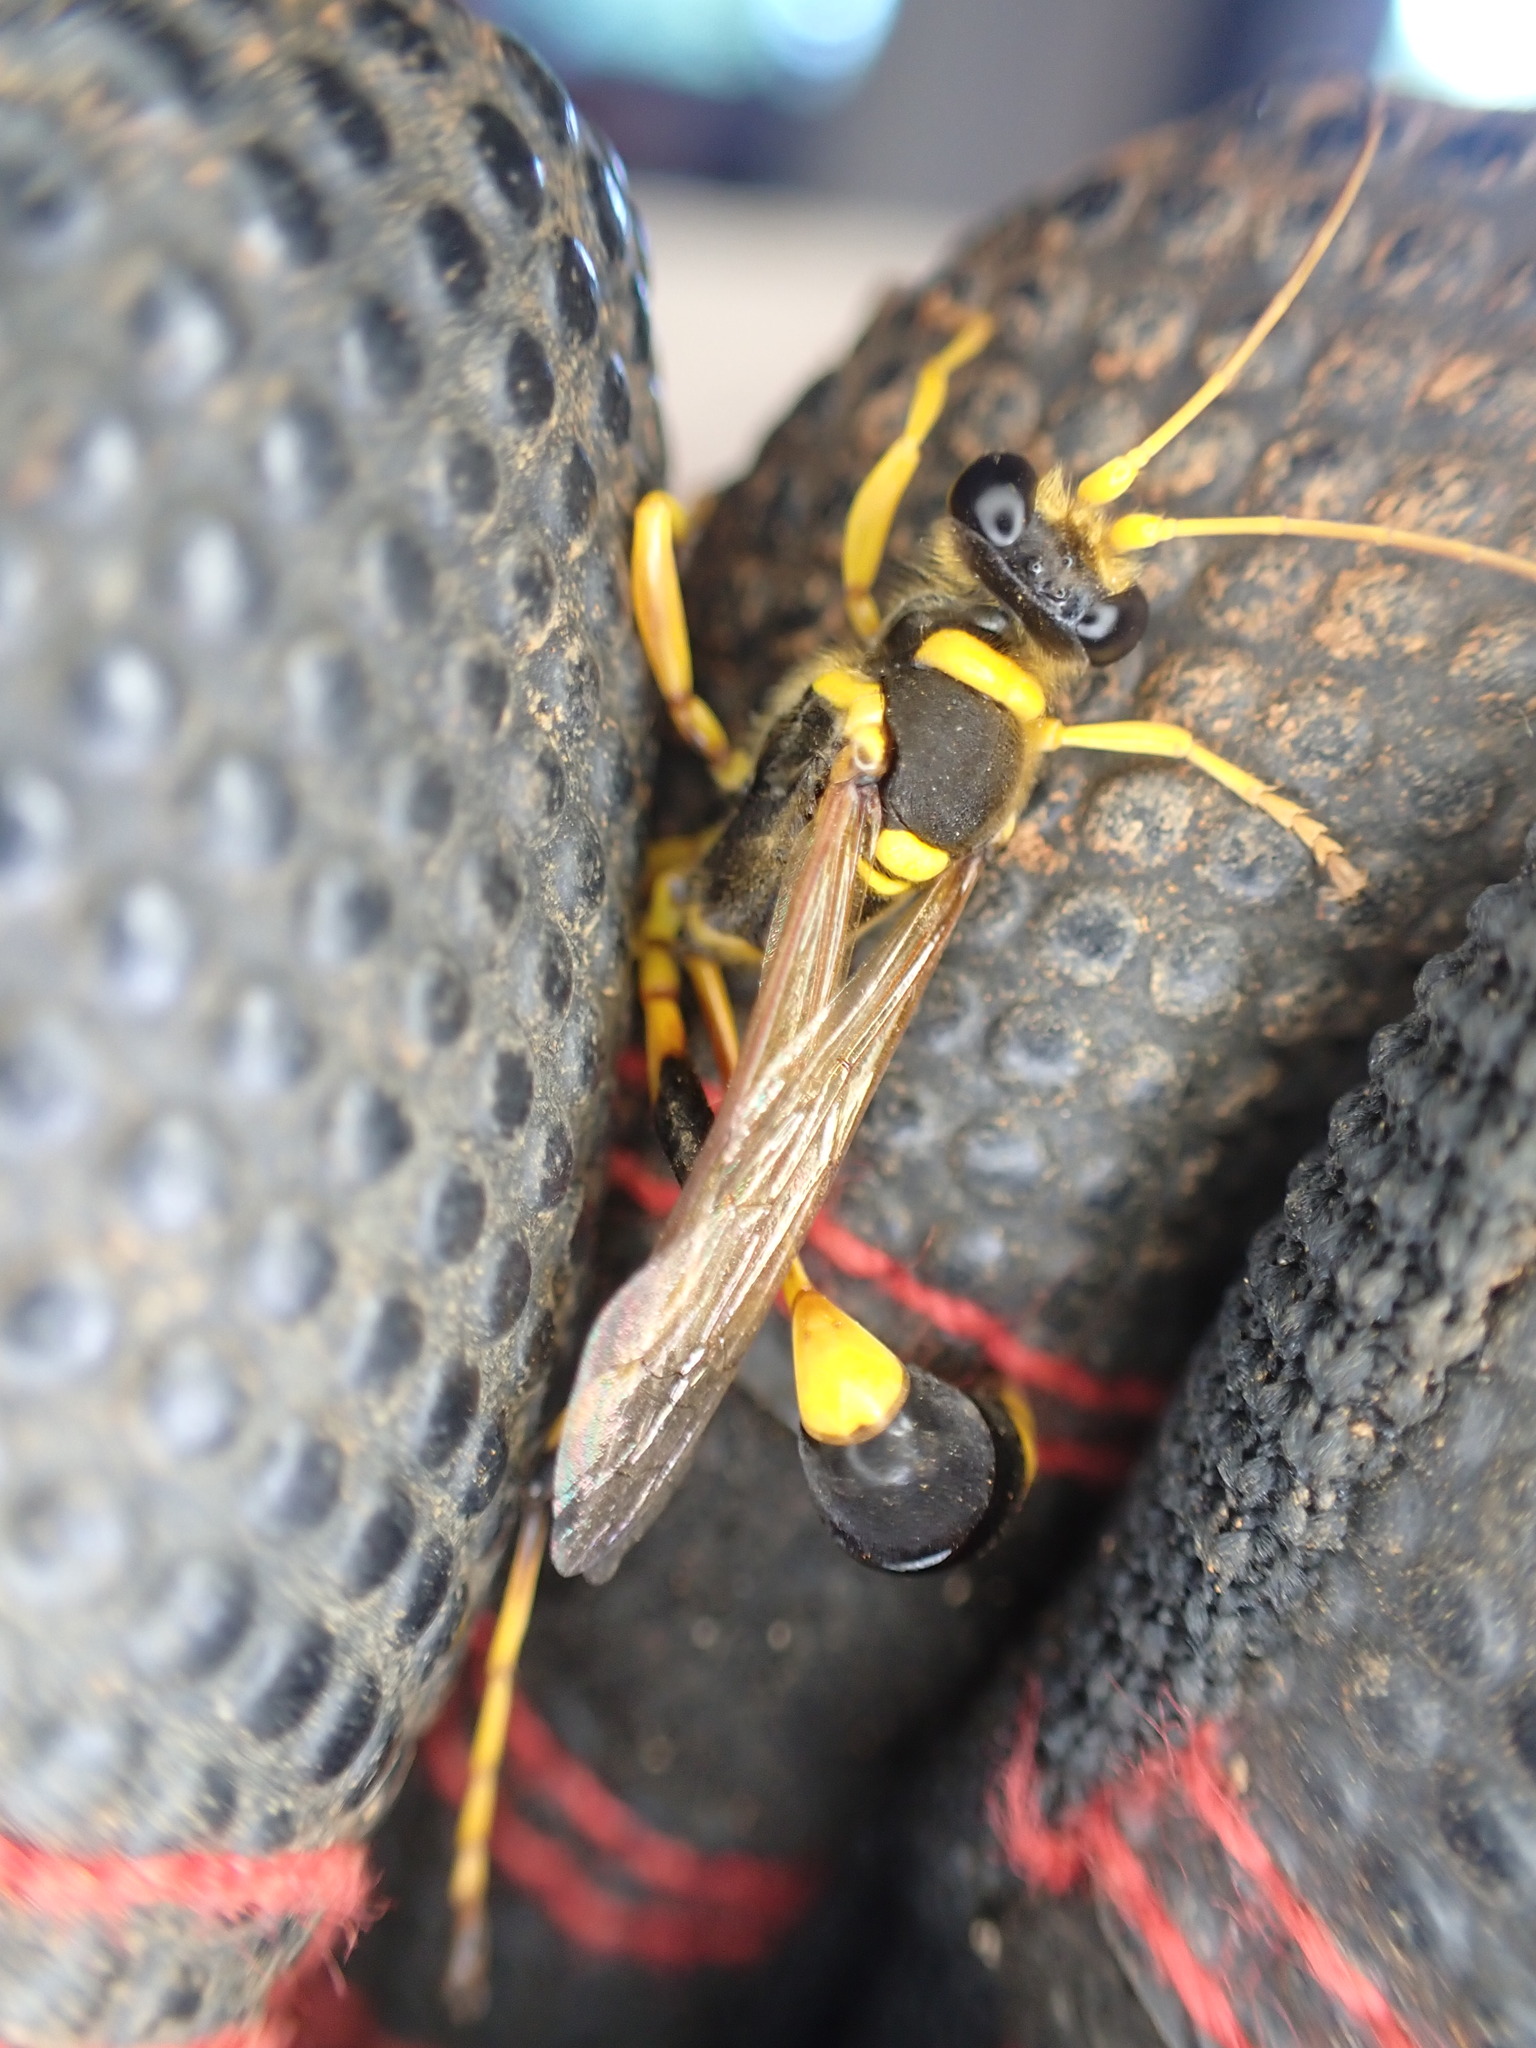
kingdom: Animalia
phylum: Arthropoda
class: Insecta
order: Hymenoptera
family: Sphecidae
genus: Sceliphron
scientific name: Sceliphron laetum
